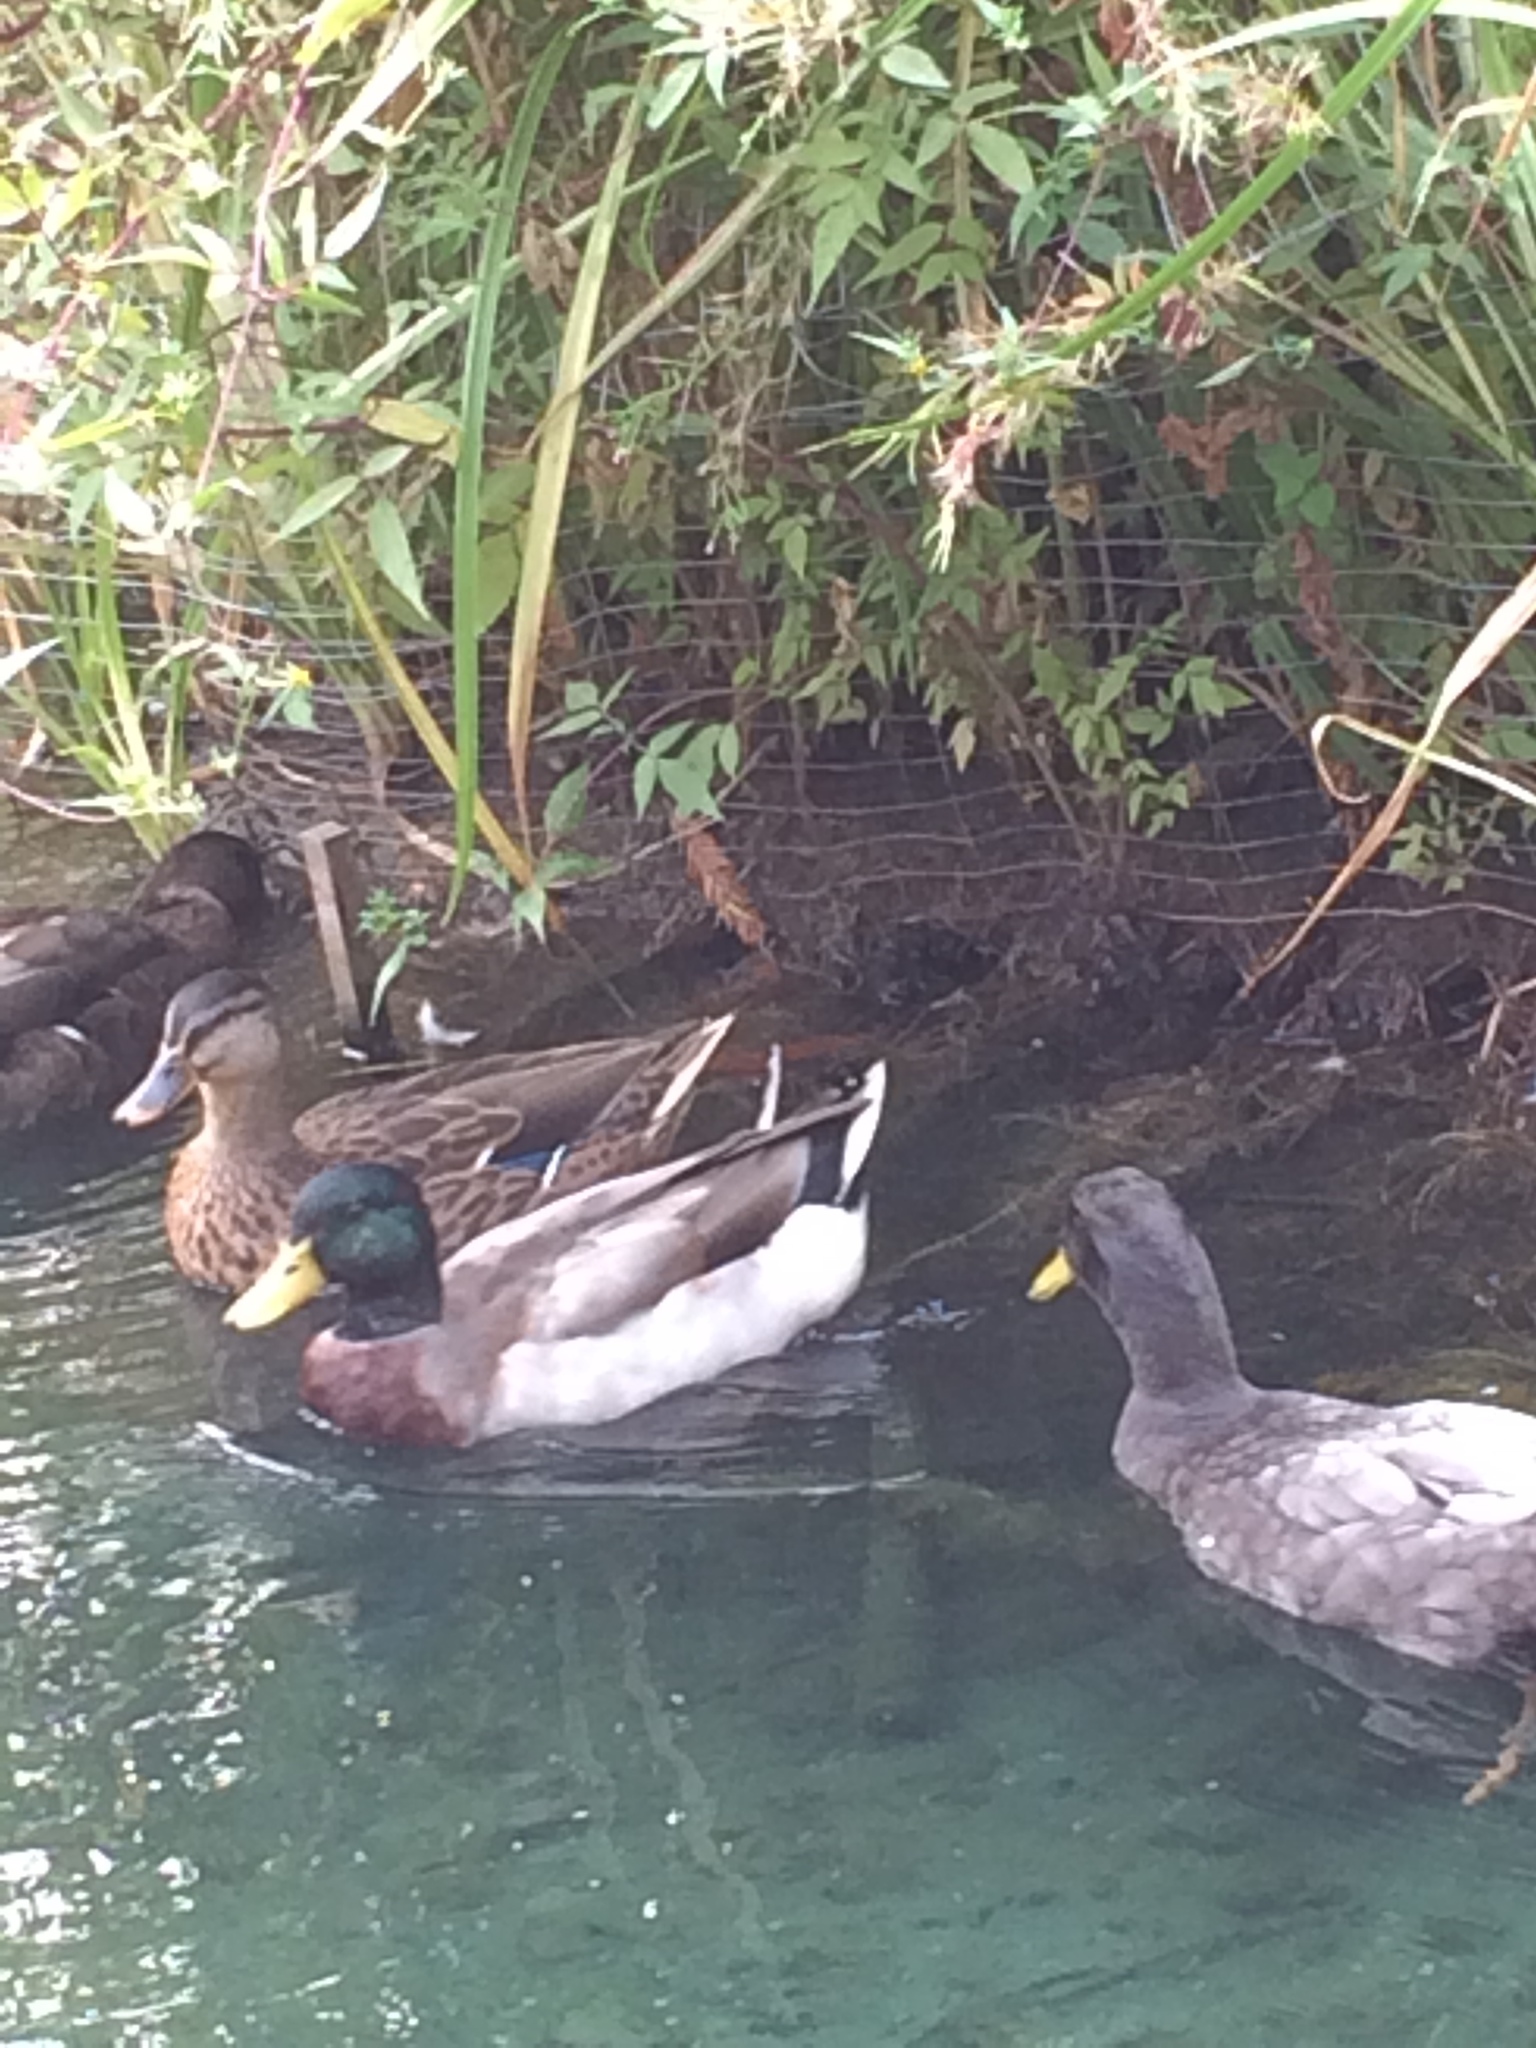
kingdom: Animalia
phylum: Chordata
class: Aves
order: Anseriformes
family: Anatidae
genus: Anas
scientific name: Anas platyrhynchos
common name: Mallard
